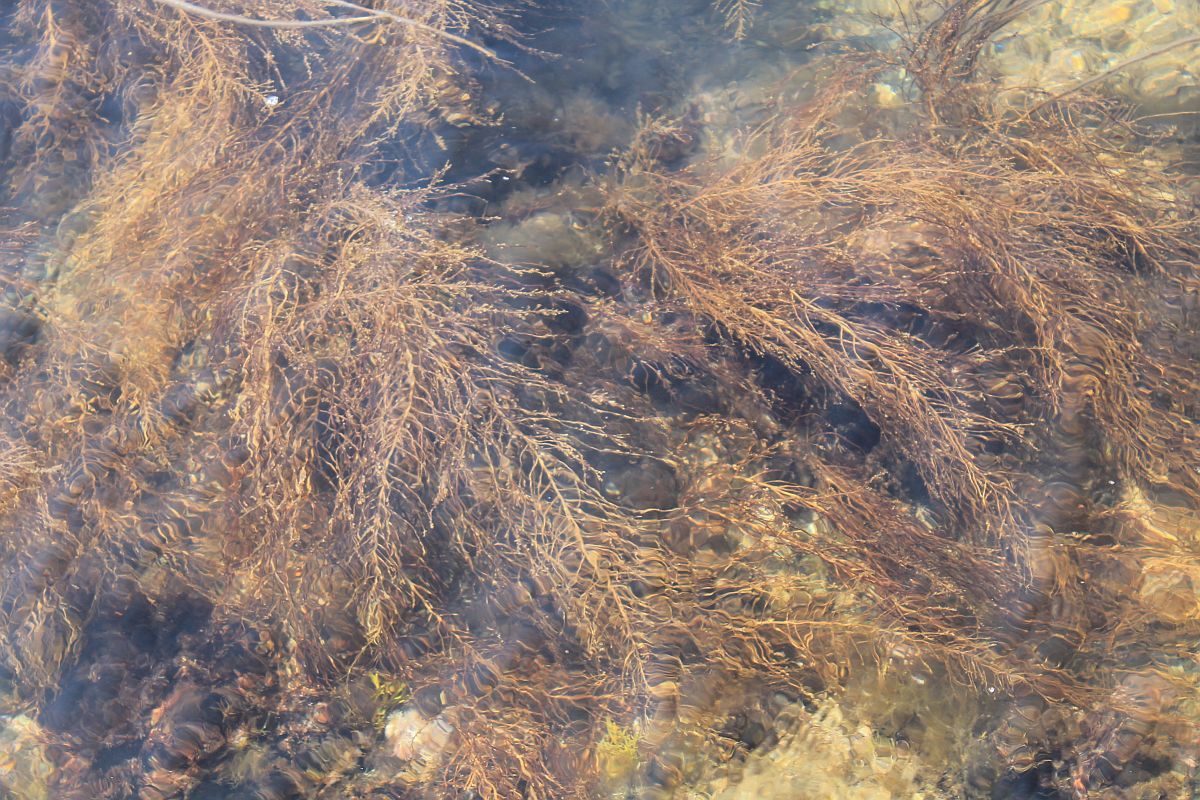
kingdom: Chromista
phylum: Ochrophyta
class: Phaeophyceae
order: Fucales
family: Sargassaceae
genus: Sargassum
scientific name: Sargassum muticum
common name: Japweed
